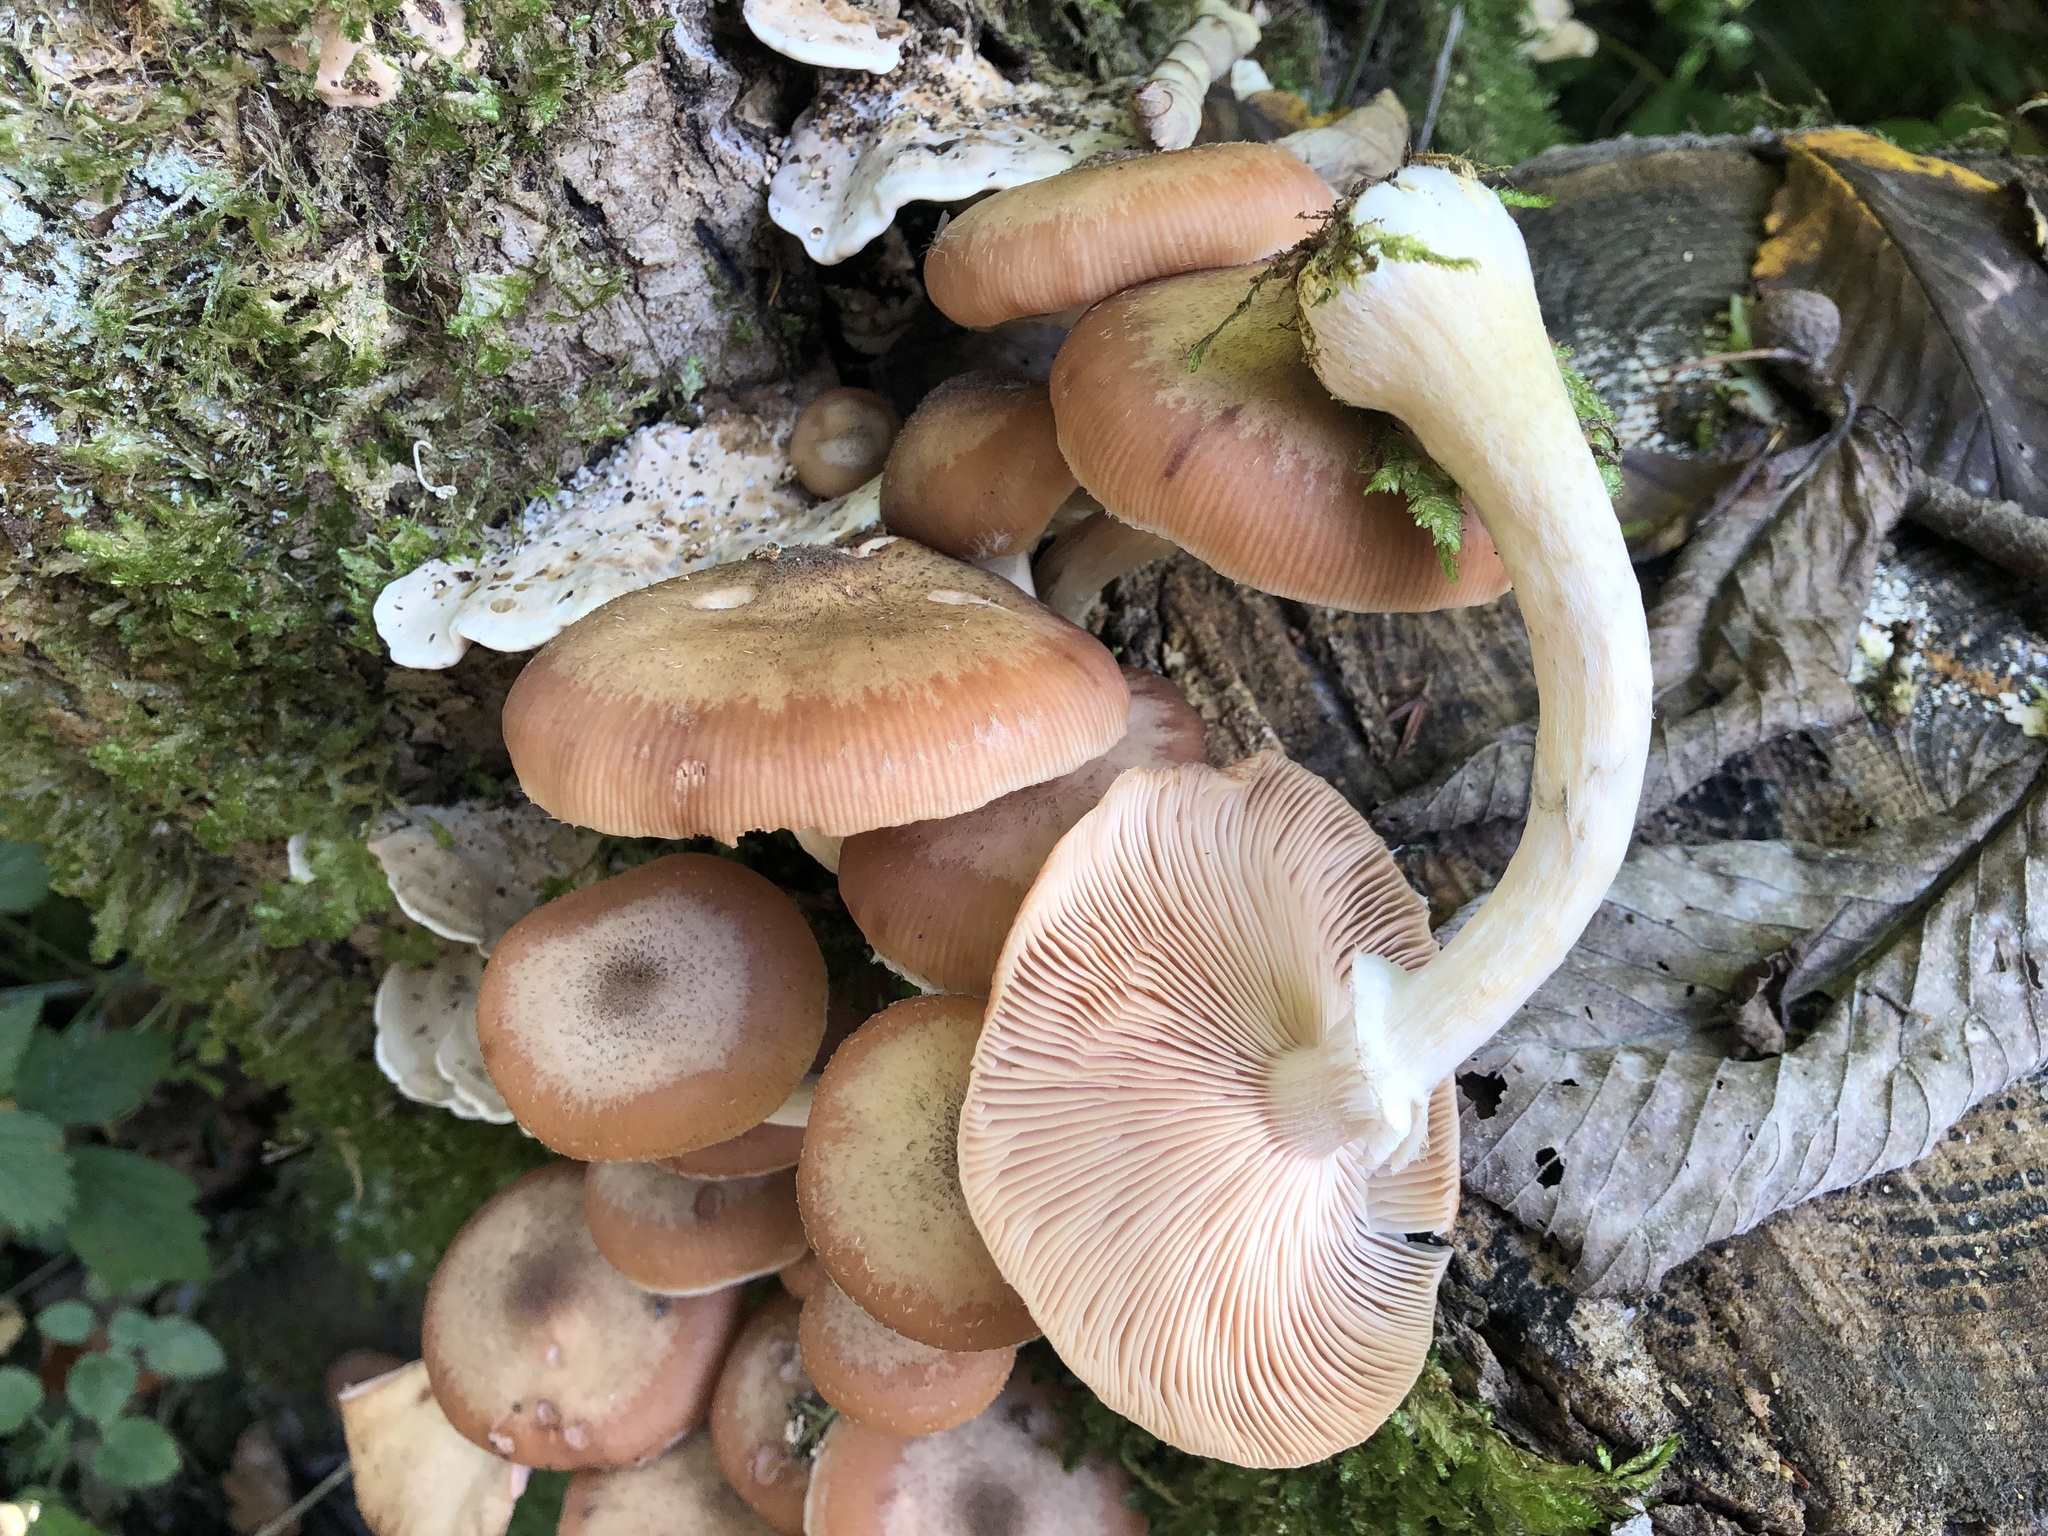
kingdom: Fungi
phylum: Basidiomycota
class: Agaricomycetes
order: Agaricales
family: Physalacriaceae
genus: Armillaria
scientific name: Armillaria cepistipes
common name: Mullet honey fungus
